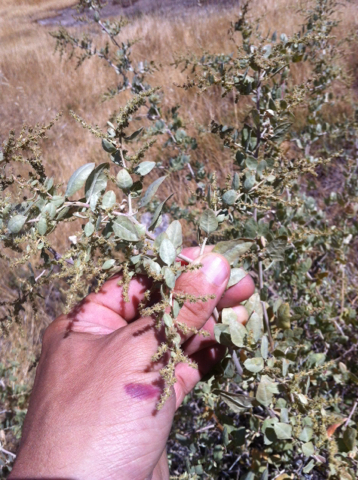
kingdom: Plantae
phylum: Tracheophyta
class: Magnoliopsida
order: Caryophyllales
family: Amaranthaceae
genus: Atriplex
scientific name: Atriplex lentiformis
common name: Big saltbush
